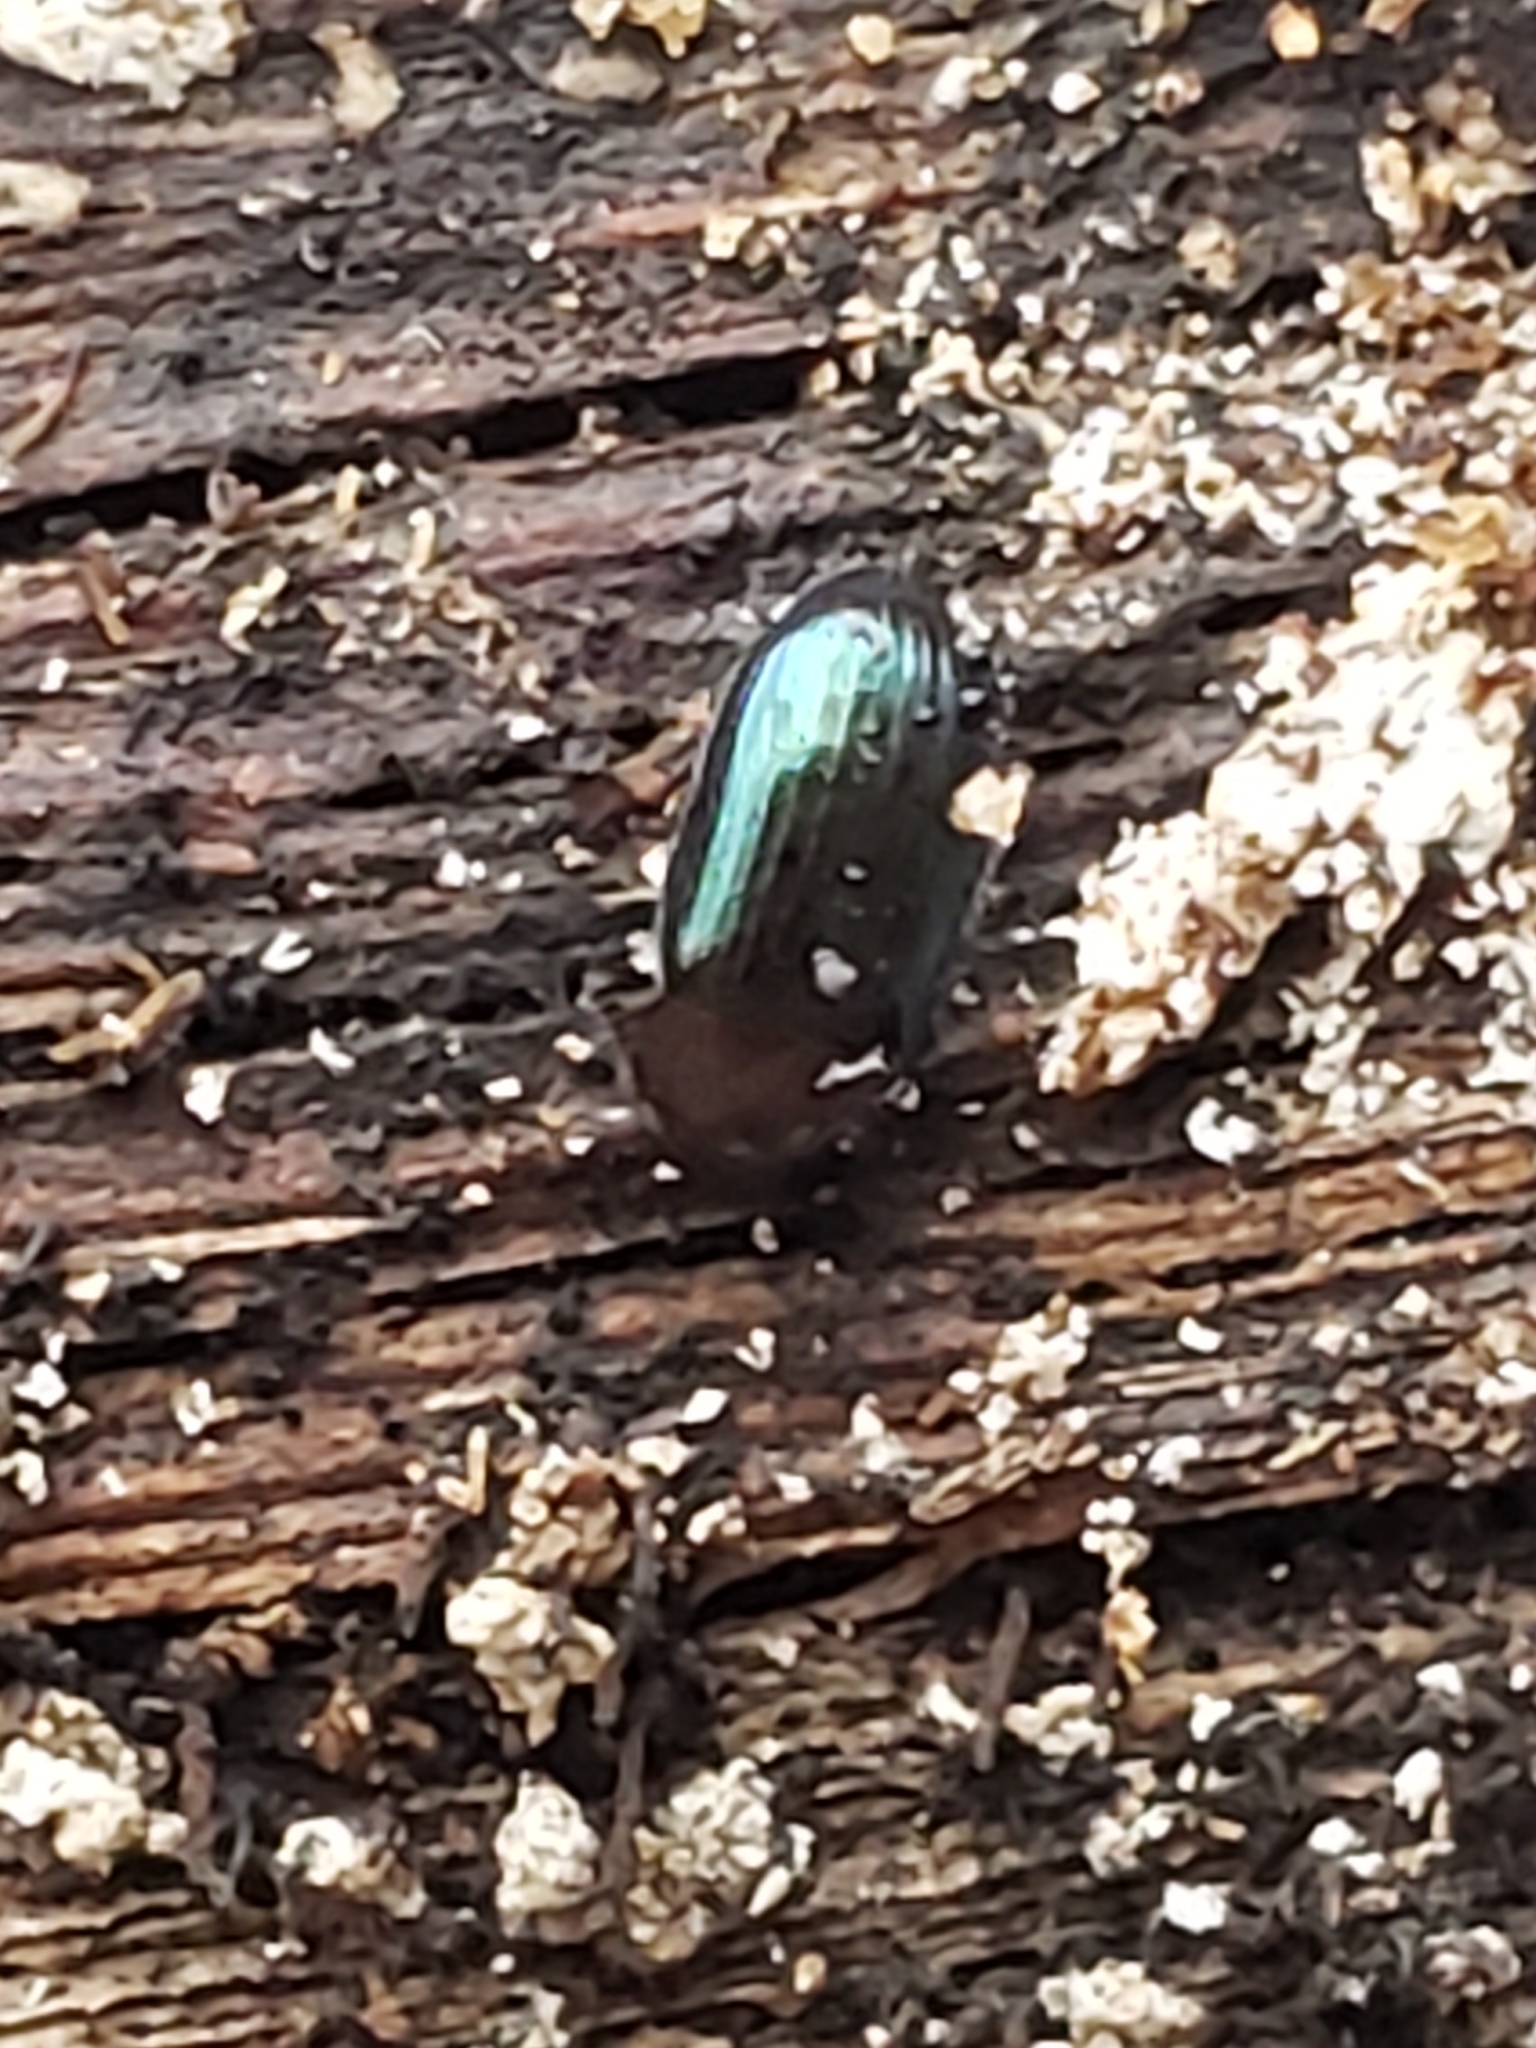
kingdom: Animalia
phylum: Arthropoda
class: Insecta
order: Coleoptera
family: Tenebrionidae
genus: Neomida
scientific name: Neomida bicornis
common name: Two-horned darkling beetle
